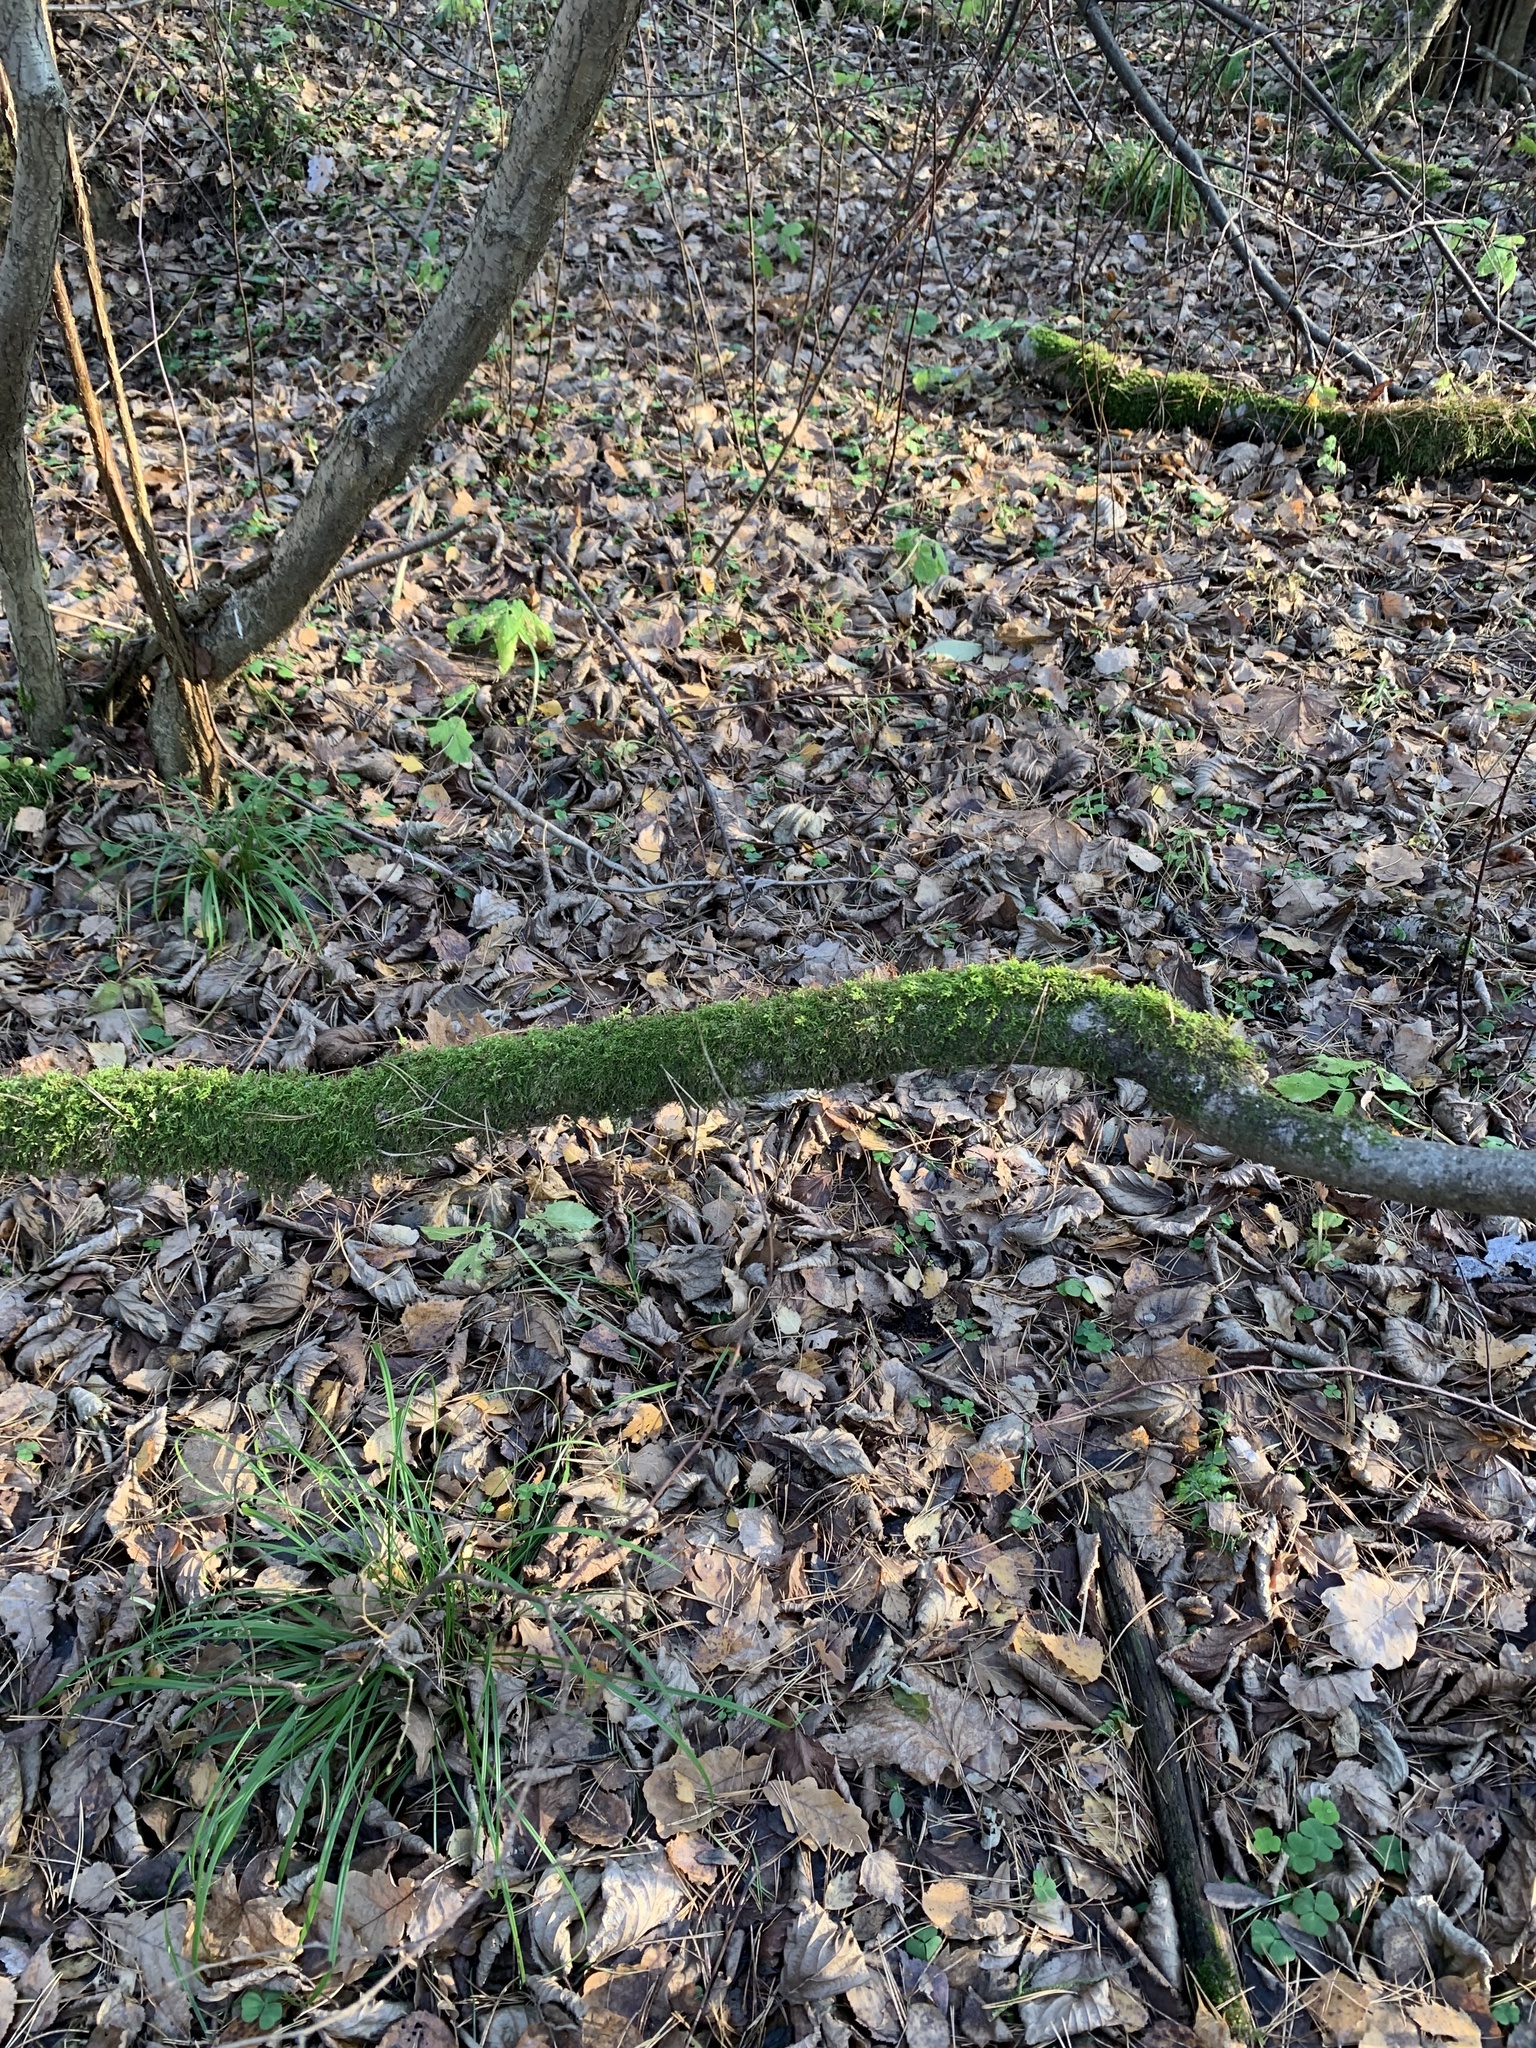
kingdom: Plantae
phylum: Bryophyta
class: Bryopsida
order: Hypnales
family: Scorpidiaceae
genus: Sanionia
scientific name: Sanionia uncinata
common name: Sickle moss
